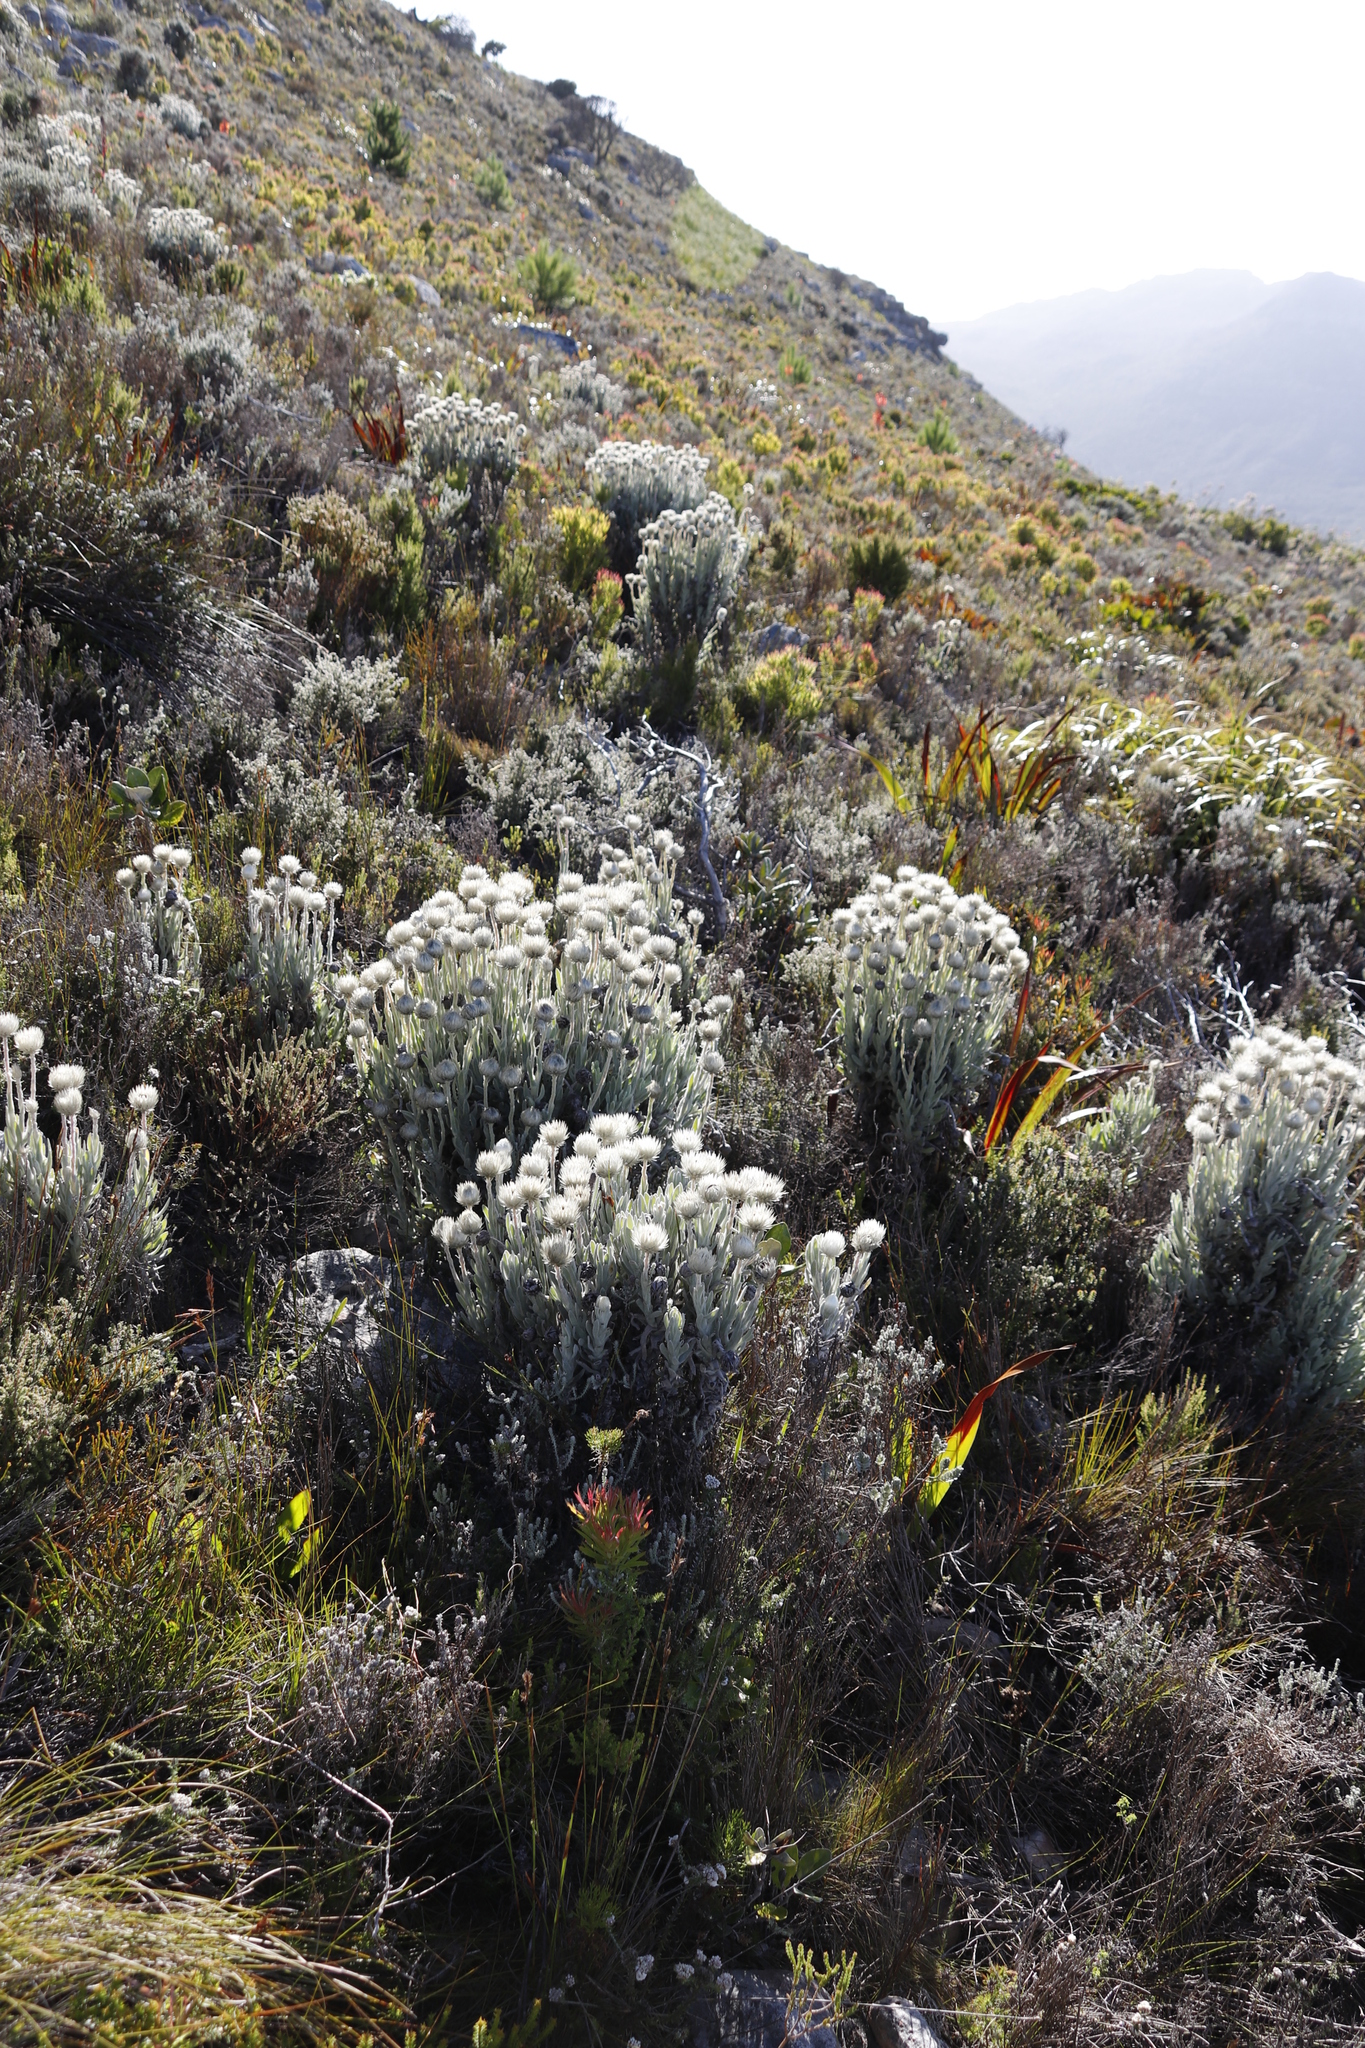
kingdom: Plantae
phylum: Tracheophyta
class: Magnoliopsida
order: Asterales
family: Asteraceae
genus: Syncarpha
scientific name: Syncarpha vestita
